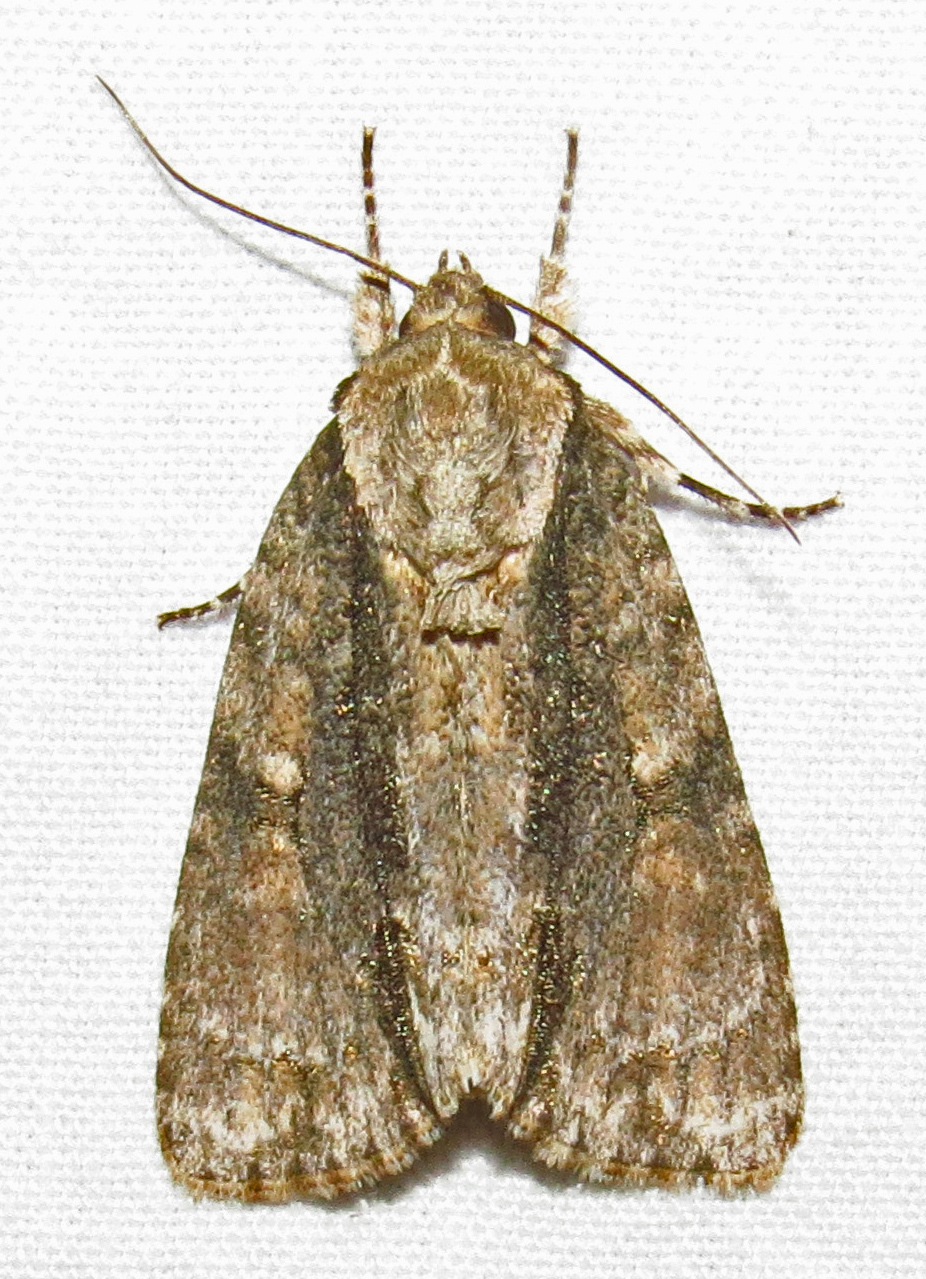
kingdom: Animalia
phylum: Arthropoda
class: Insecta
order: Lepidoptera
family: Noctuidae
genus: Acronicta
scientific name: Acronicta connecta
